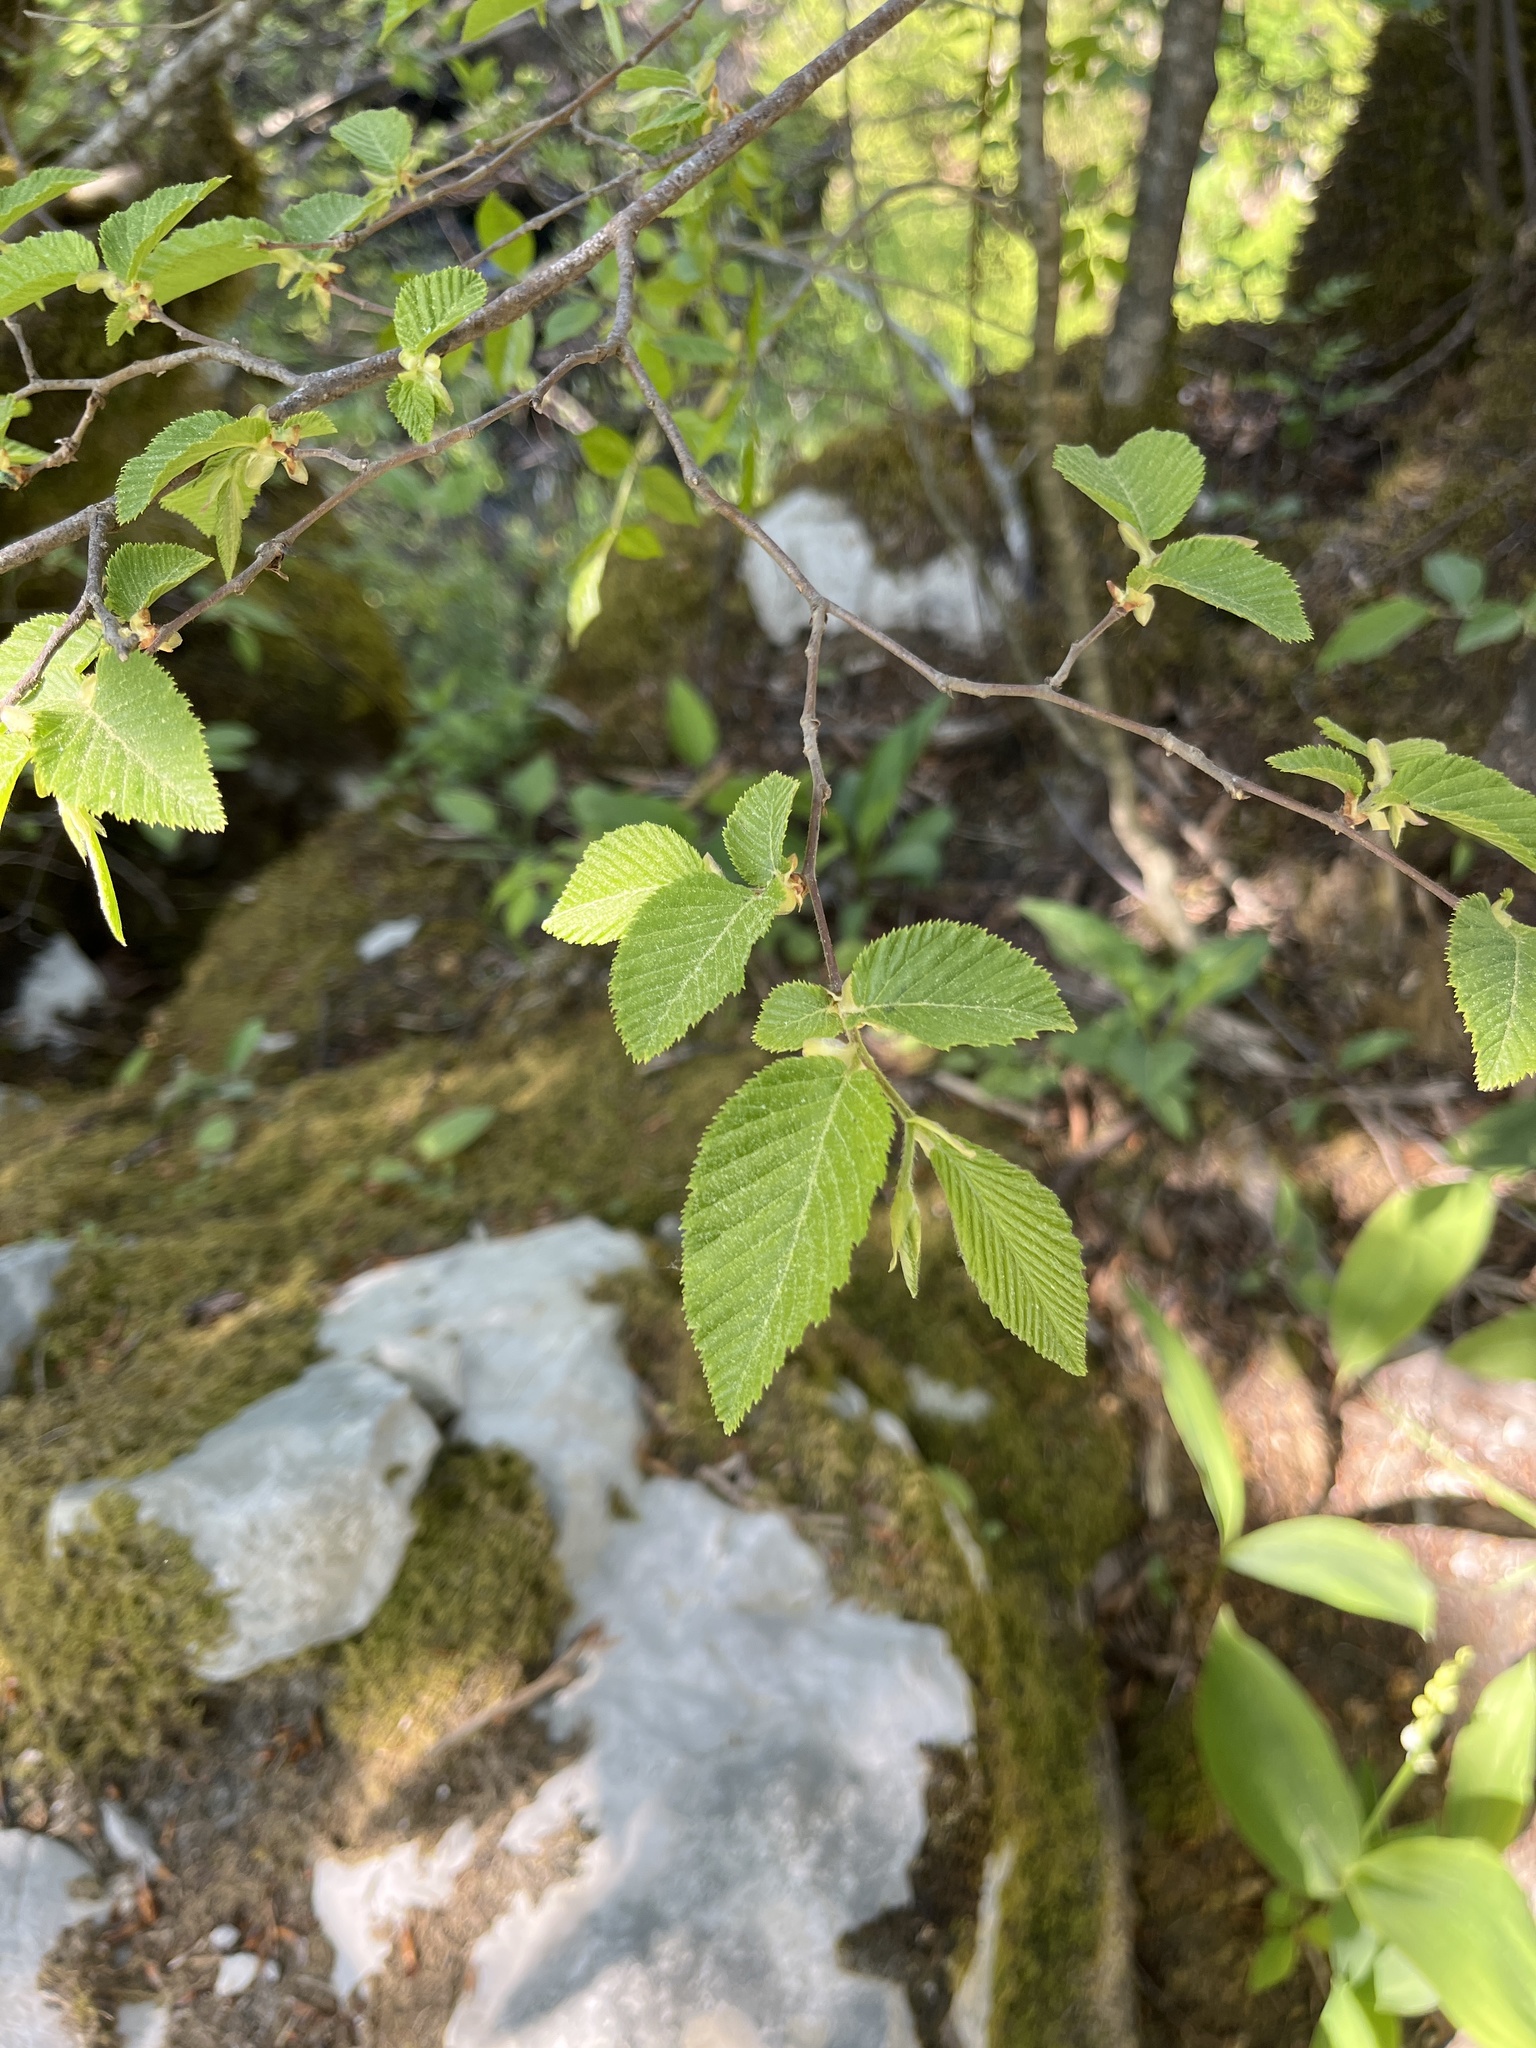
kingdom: Plantae
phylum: Tracheophyta
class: Magnoliopsida
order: Fagales
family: Betulaceae
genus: Ostrya
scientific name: Ostrya carpinifolia
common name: European hop-hornbeam
